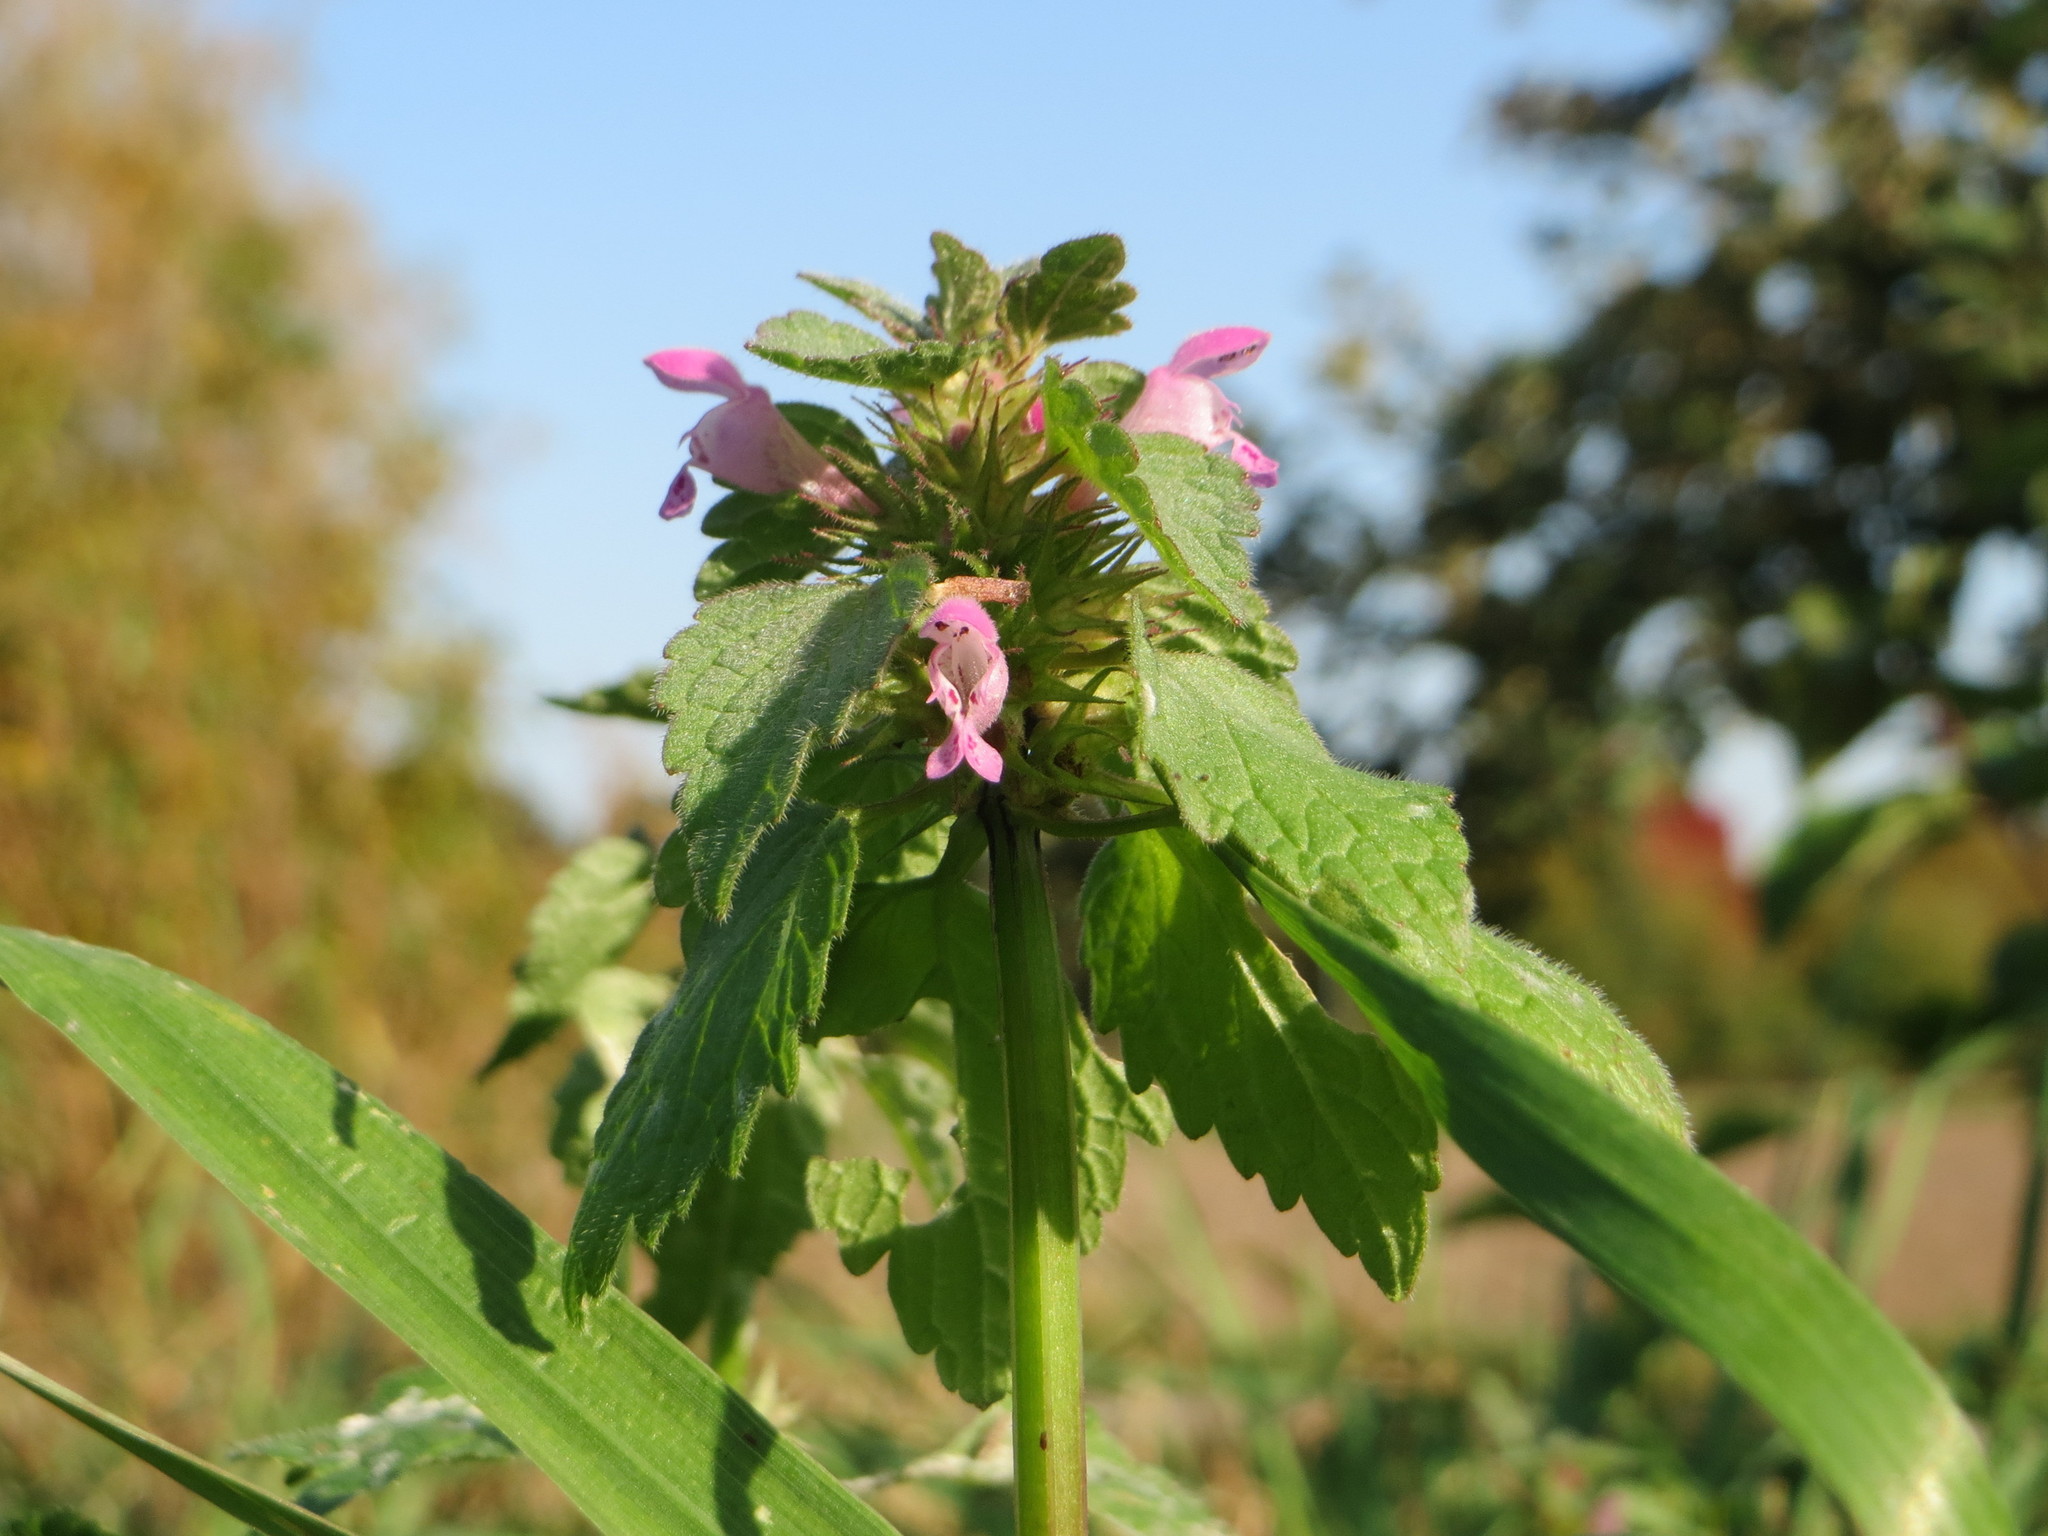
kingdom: Plantae
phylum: Tracheophyta
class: Magnoliopsida
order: Lamiales
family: Lamiaceae
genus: Lamium
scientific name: Lamium purpureum
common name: Red dead-nettle
